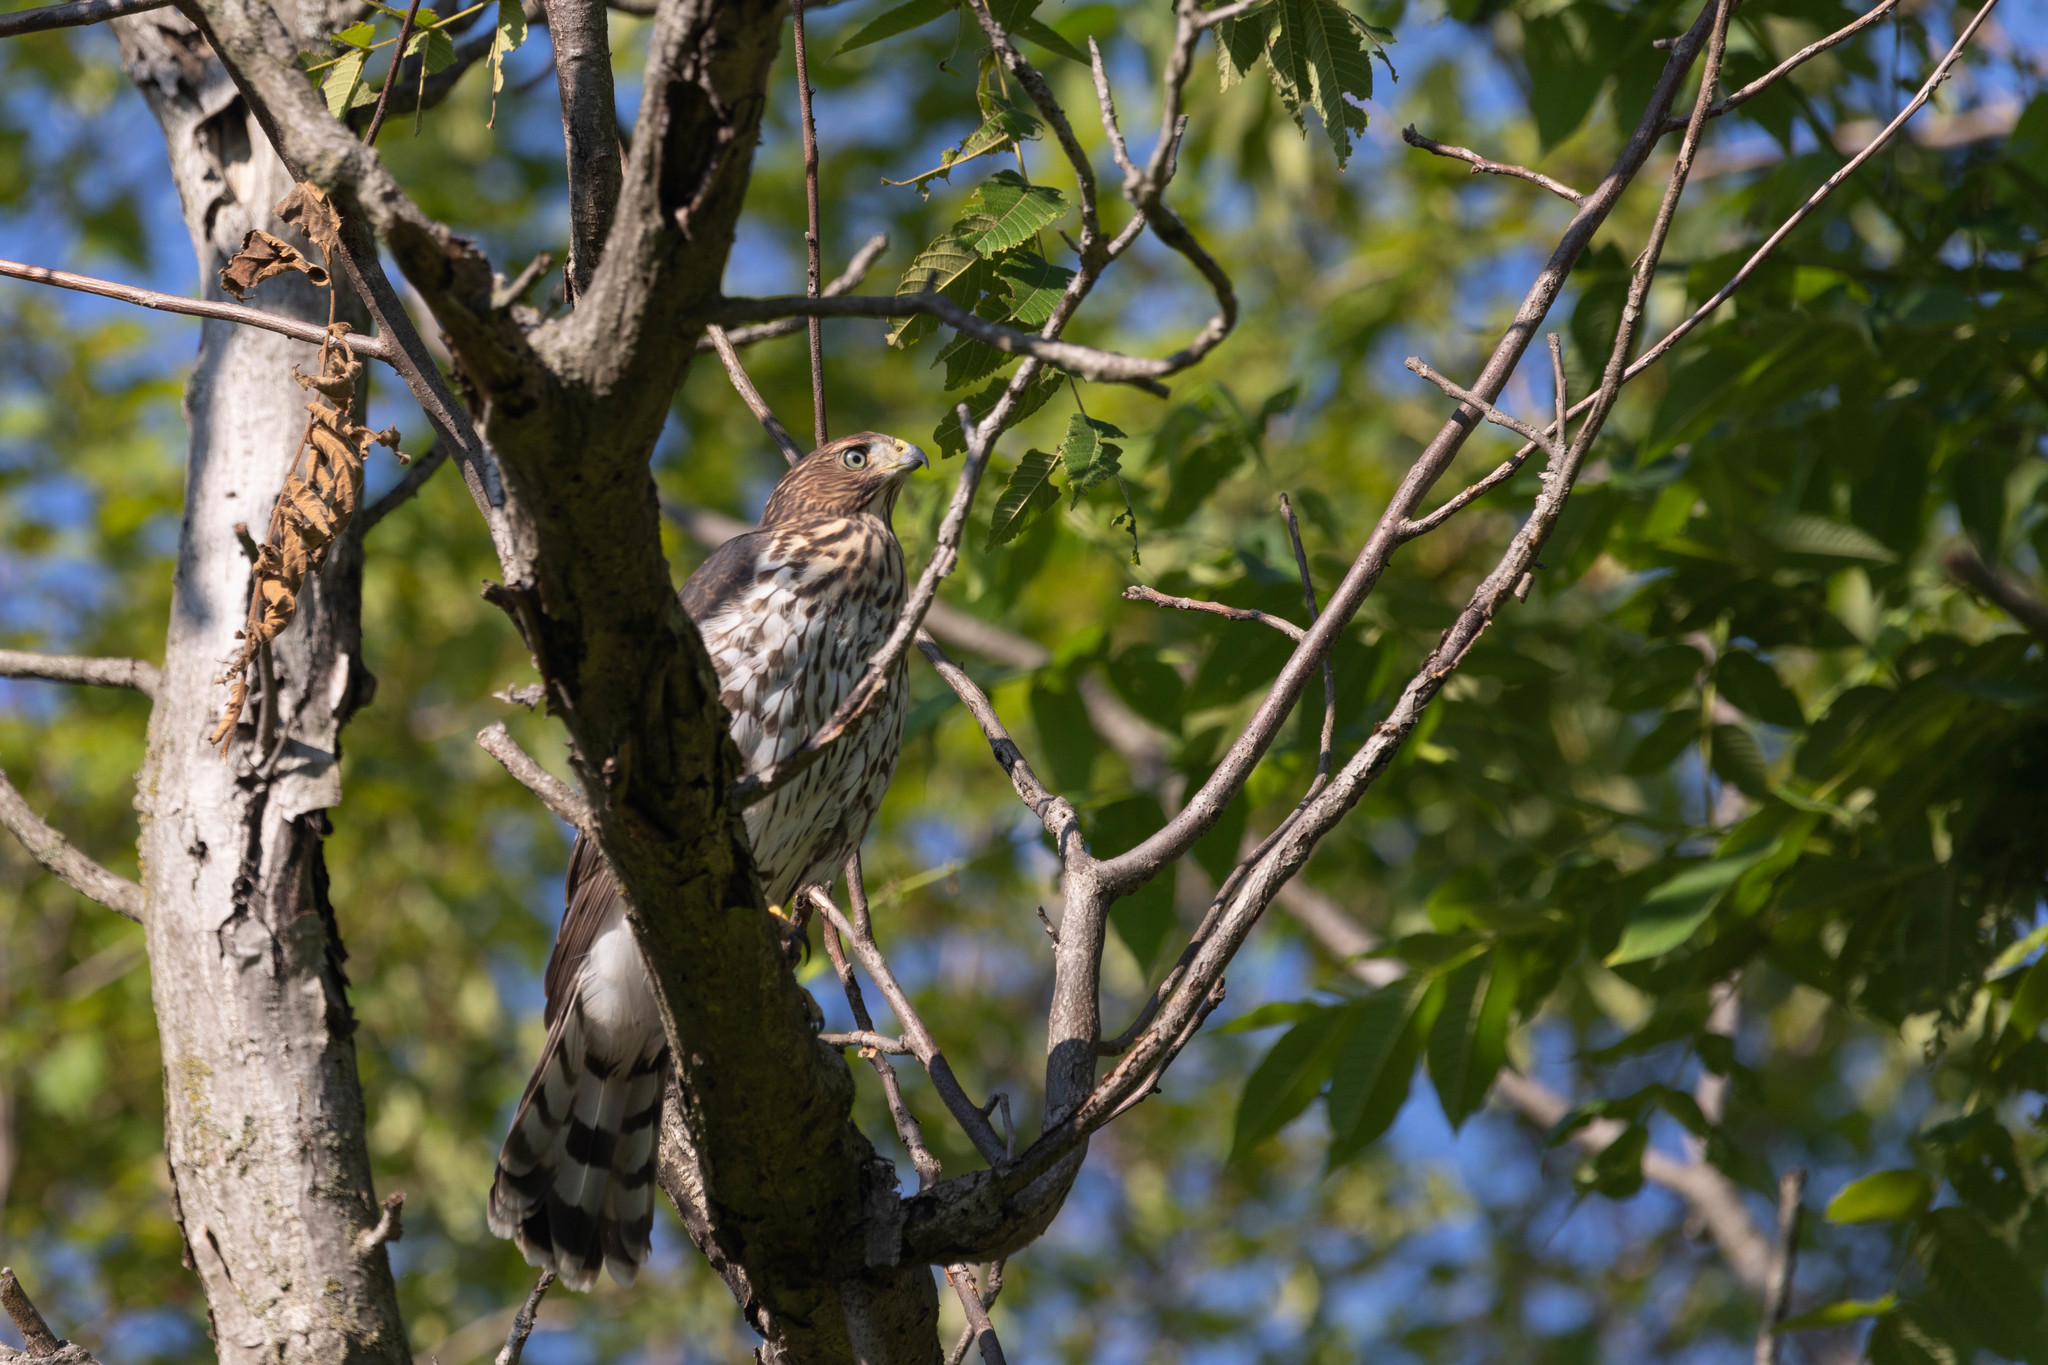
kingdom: Animalia
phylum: Chordata
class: Aves
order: Accipitriformes
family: Accipitridae
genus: Accipiter
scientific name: Accipiter cooperii
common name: Cooper's hawk
